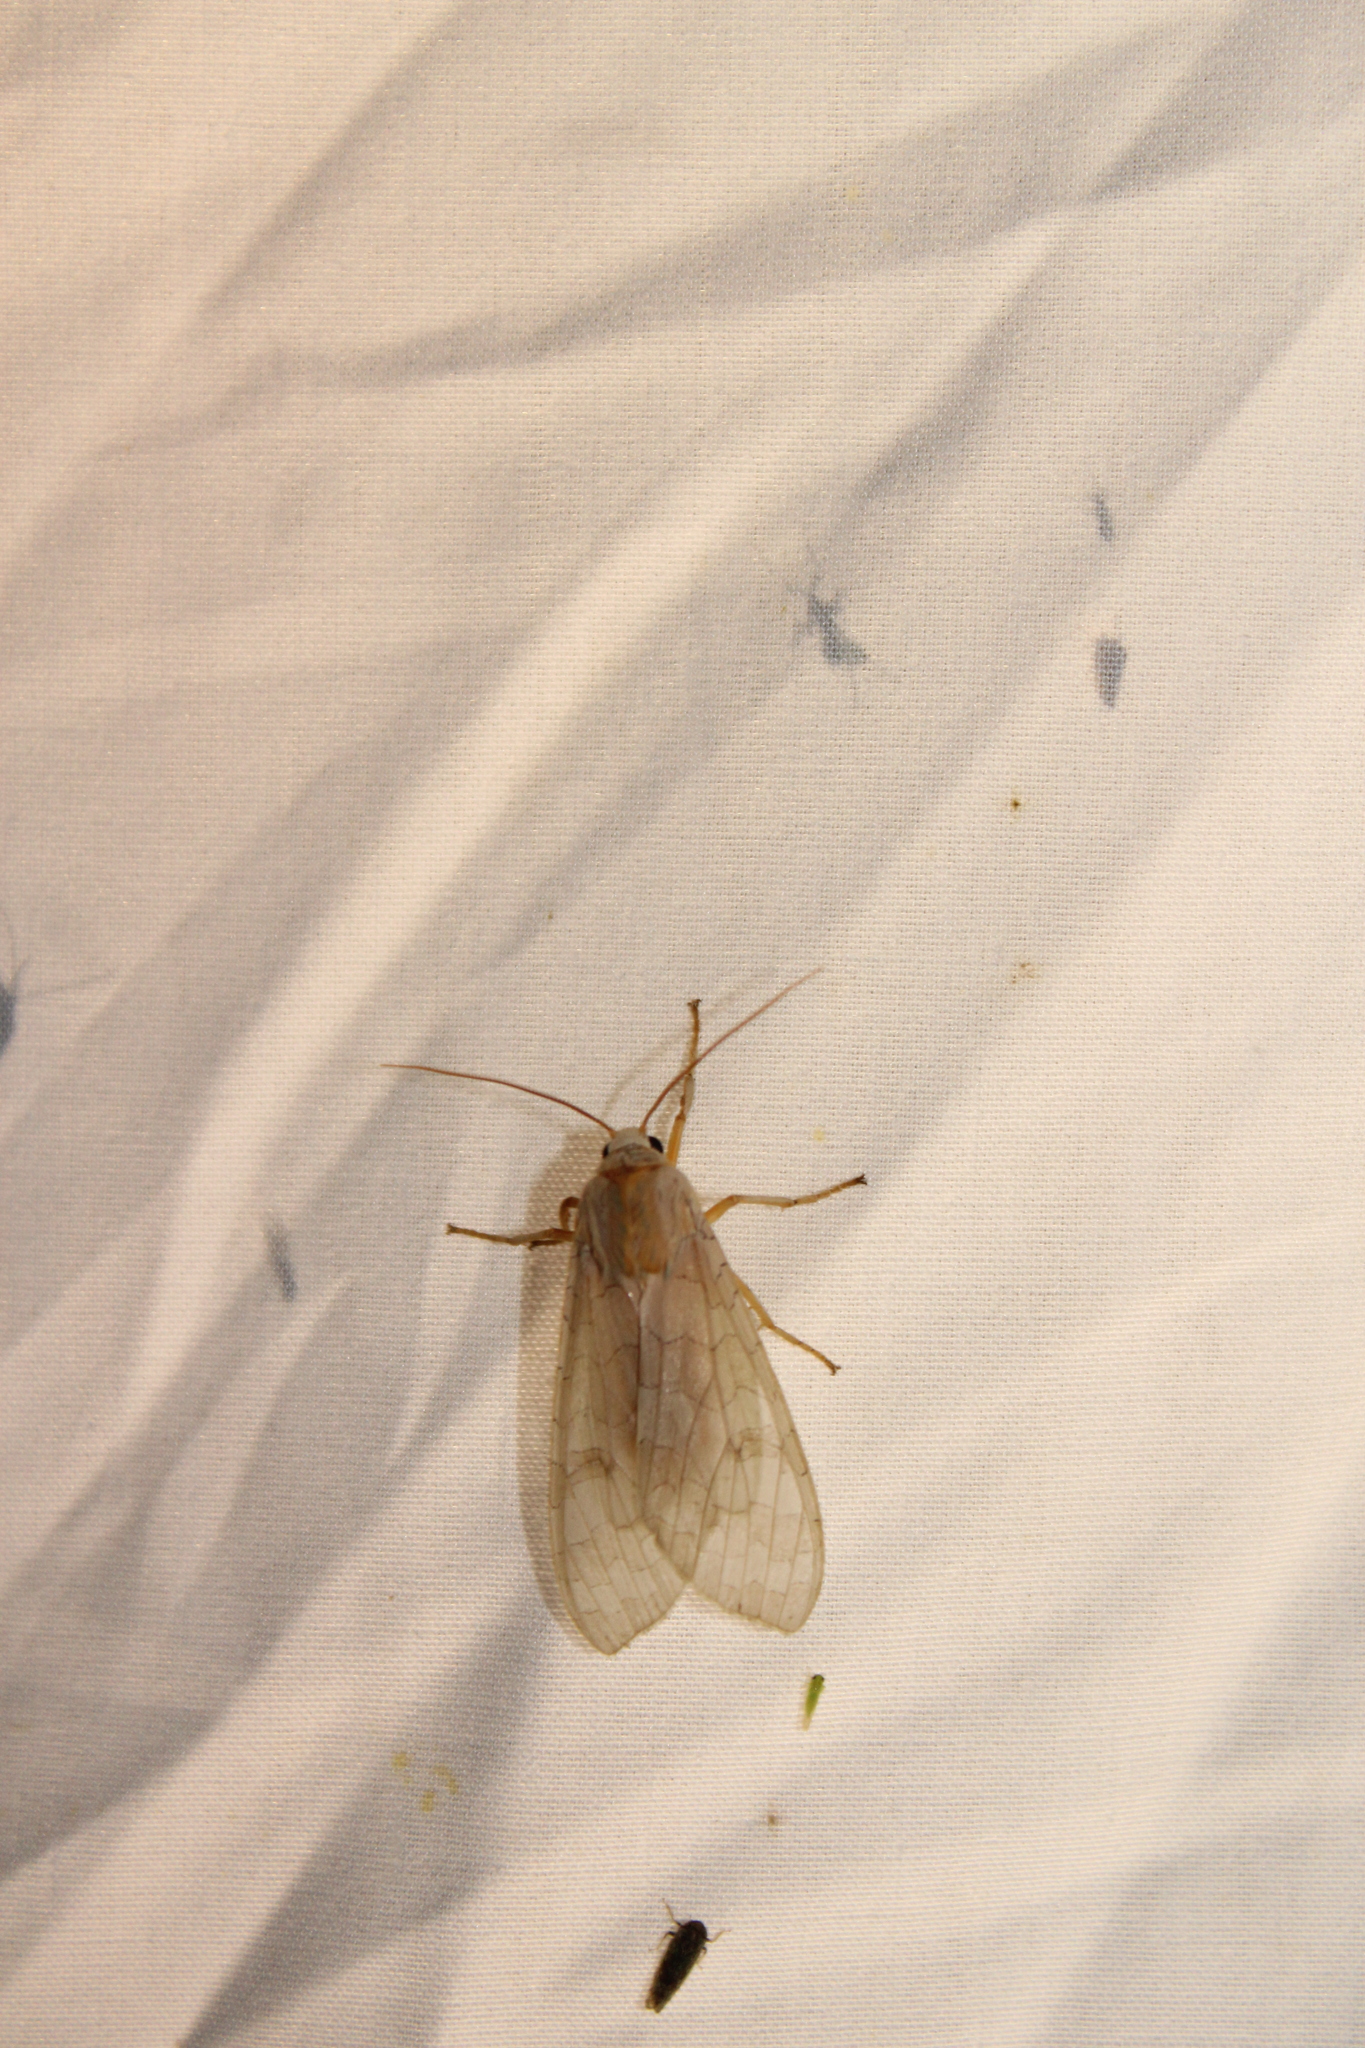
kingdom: Animalia
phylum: Arthropoda
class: Insecta
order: Lepidoptera
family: Erebidae
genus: Halysidota
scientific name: Halysidota
